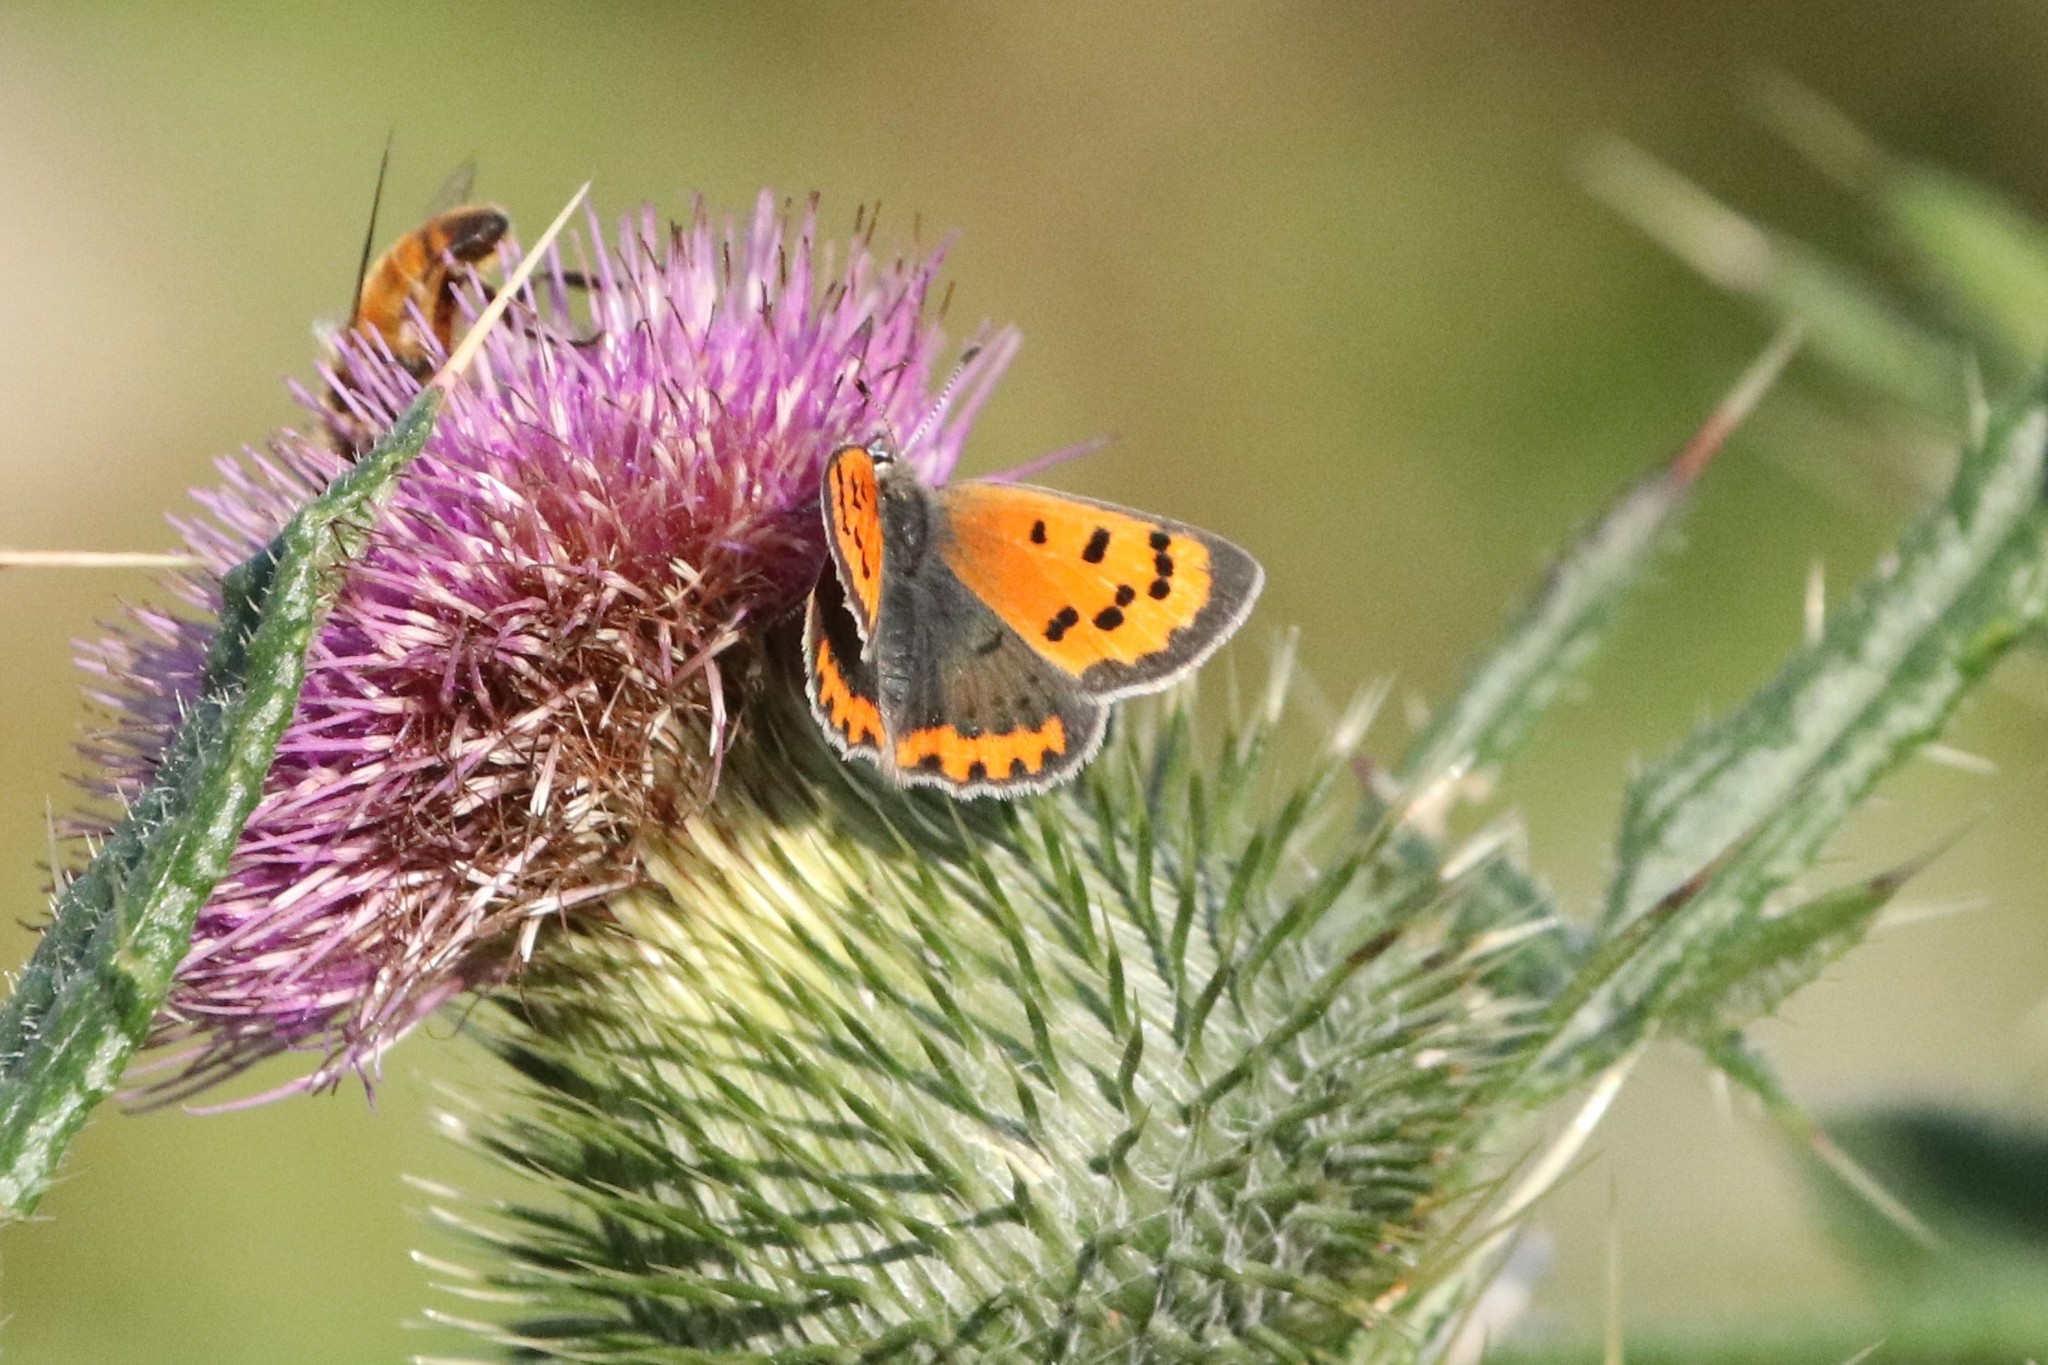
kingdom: Animalia
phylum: Arthropoda
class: Insecta
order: Lepidoptera
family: Lycaenidae
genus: Lycaena
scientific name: Lycaena hypophlaeas
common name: American copper
